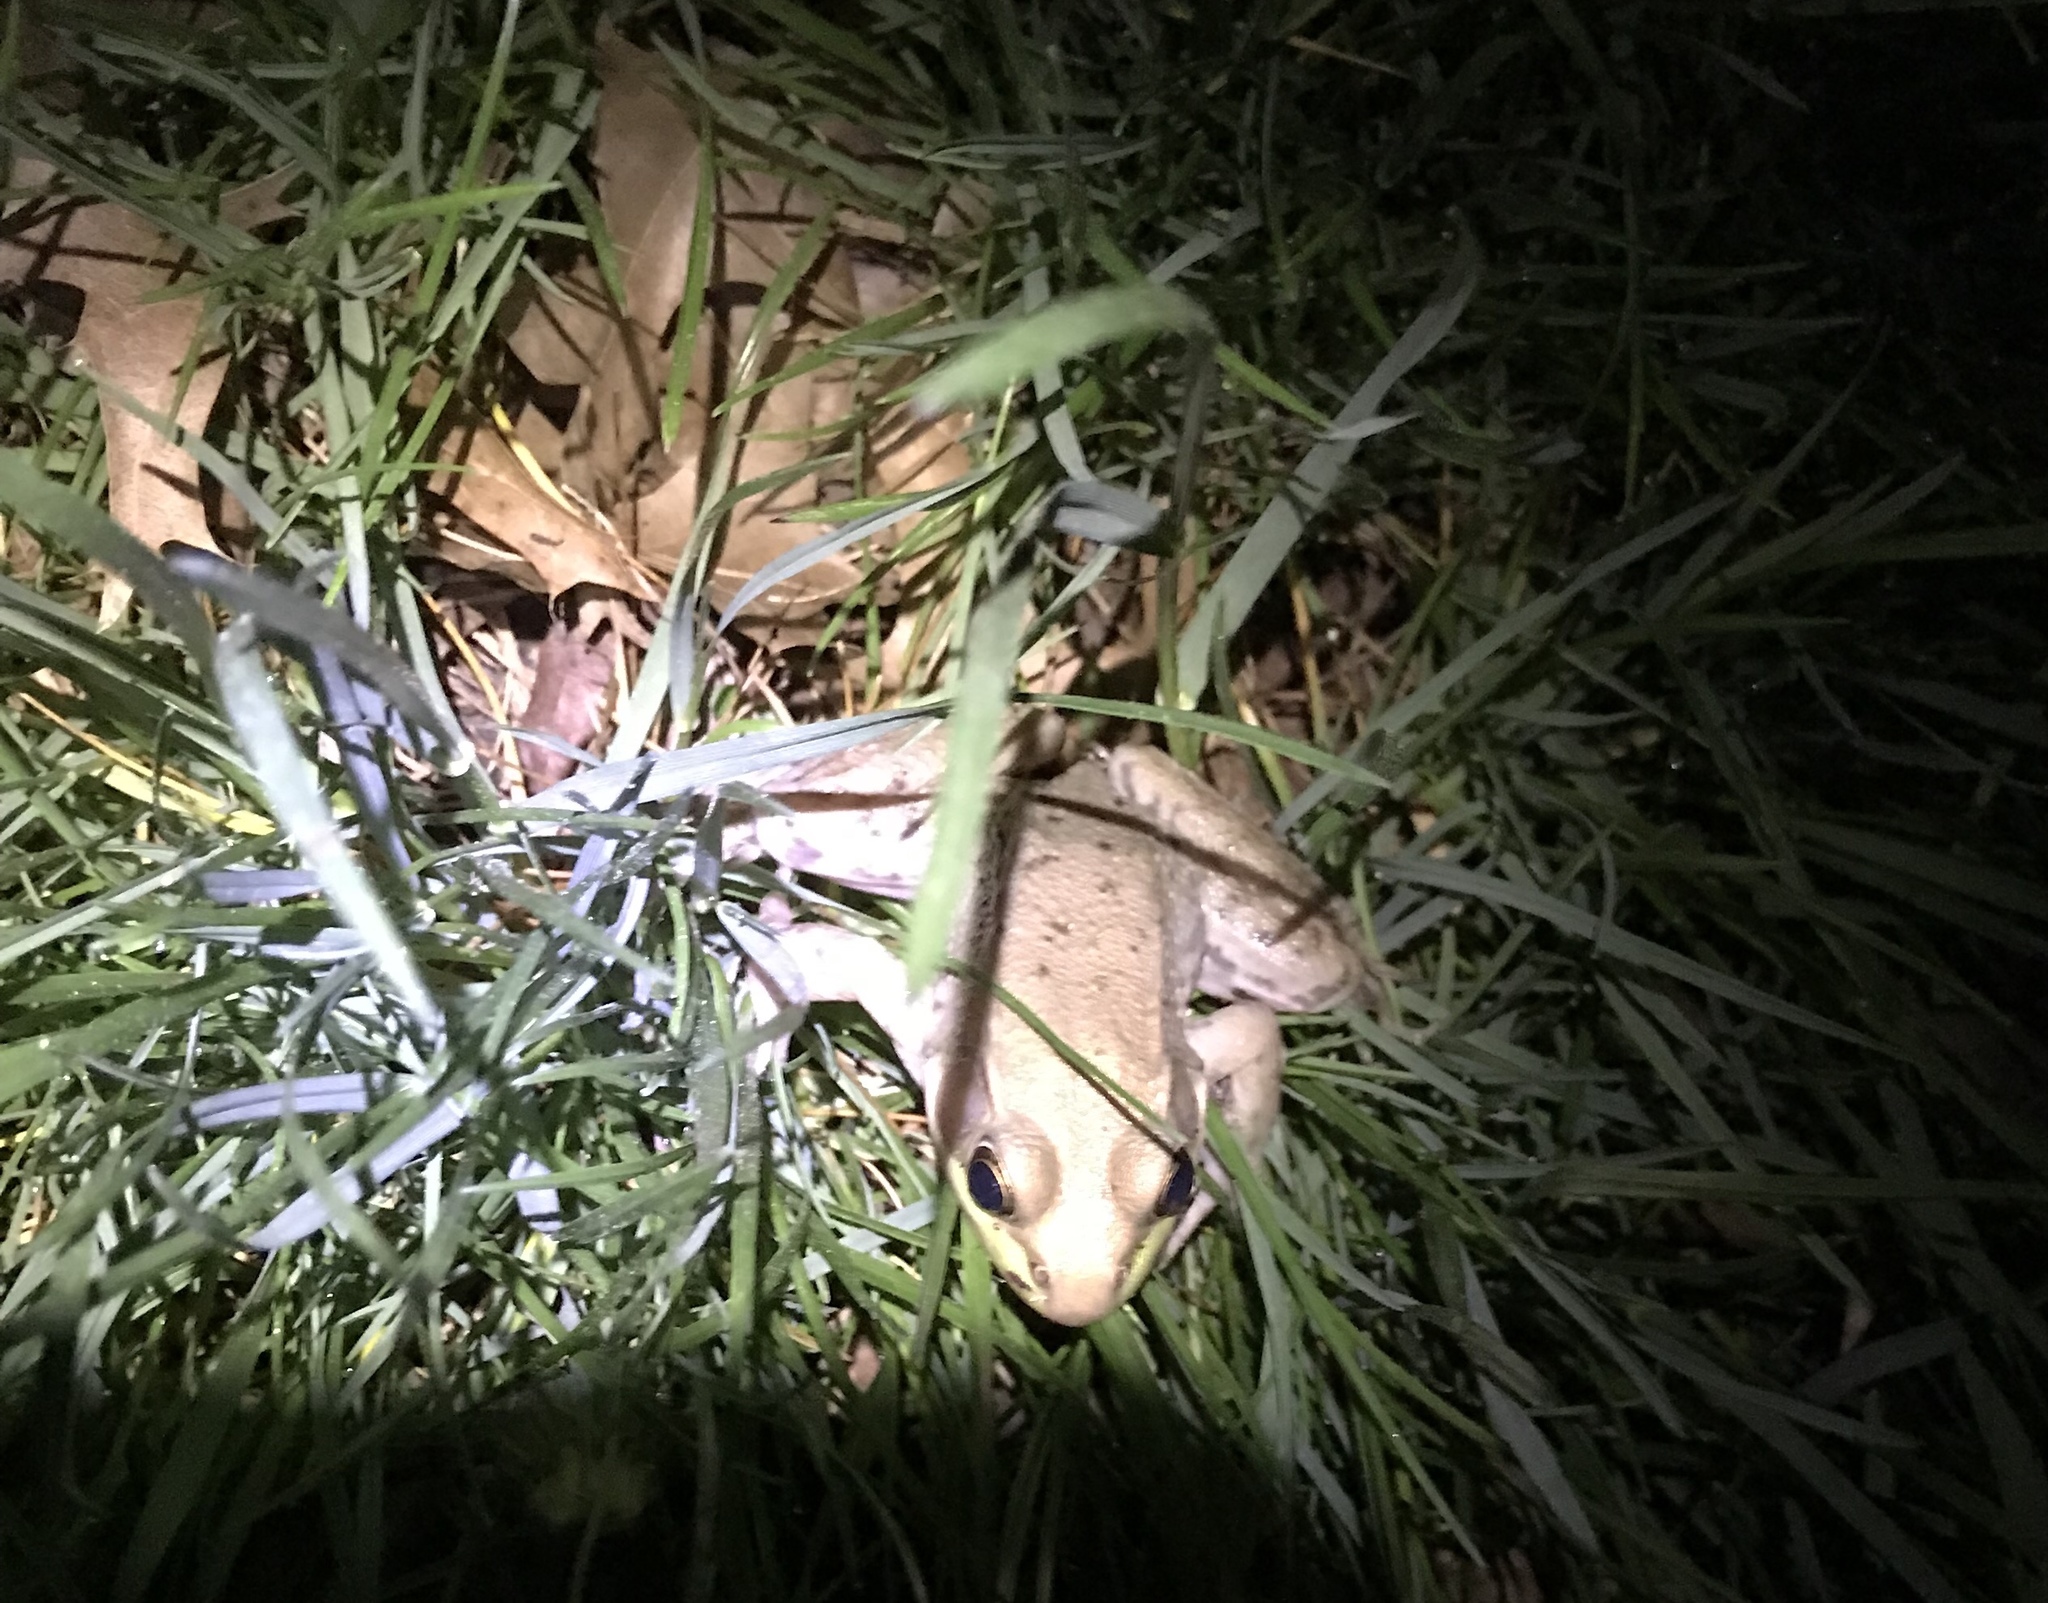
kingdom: Animalia
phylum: Chordata
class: Amphibia
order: Anura
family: Ranidae
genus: Lithobates
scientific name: Lithobates clamitans
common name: Green frog
